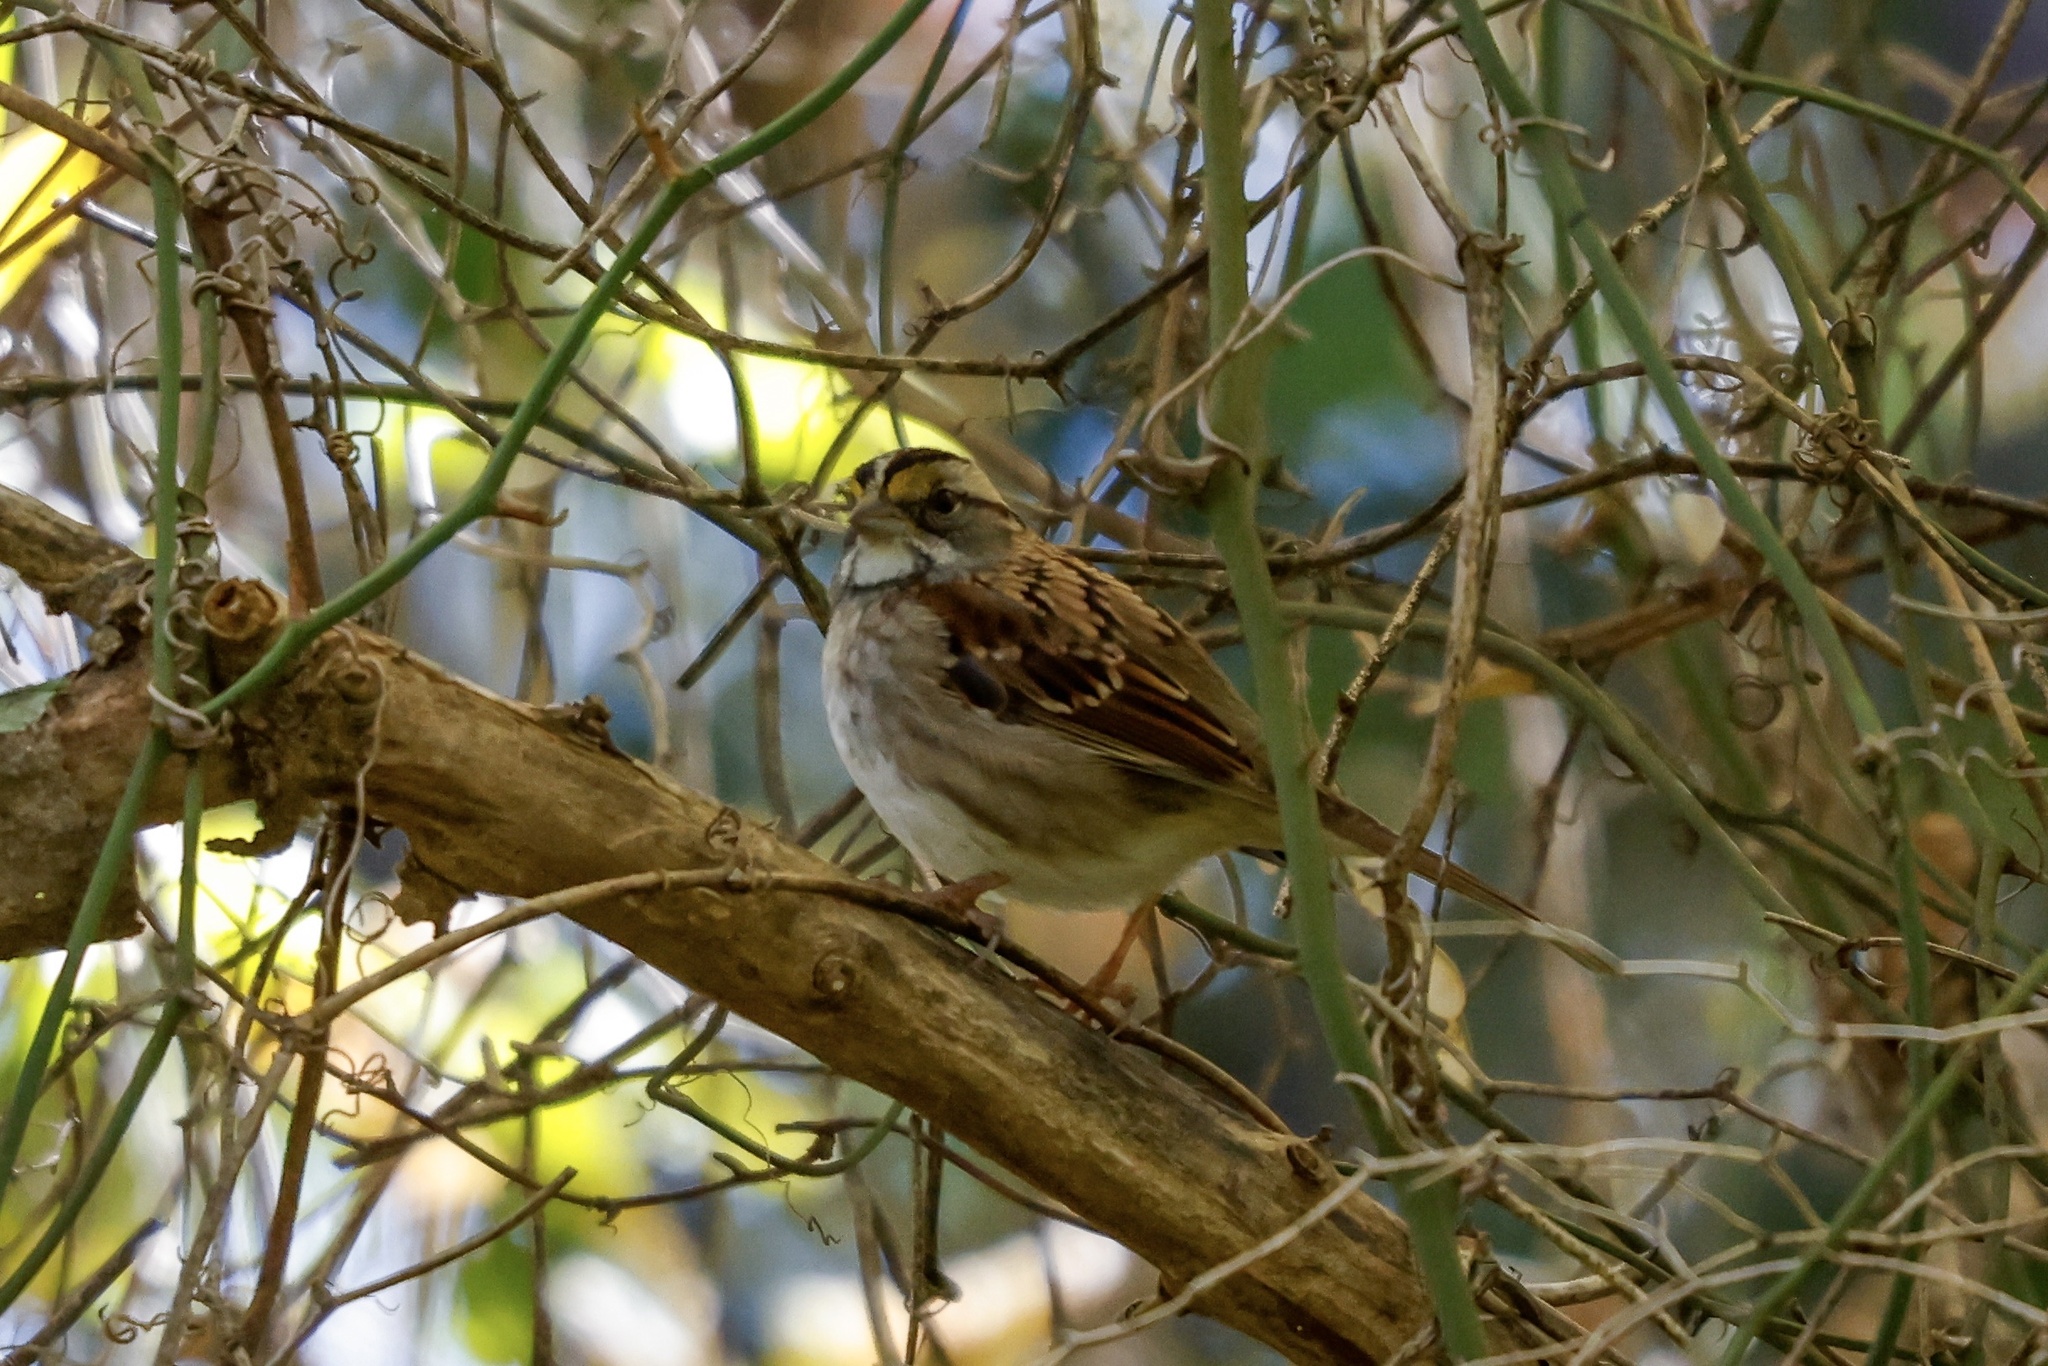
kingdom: Animalia
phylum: Chordata
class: Aves
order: Passeriformes
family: Passerellidae
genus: Zonotrichia
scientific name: Zonotrichia albicollis
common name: White-throated sparrow
